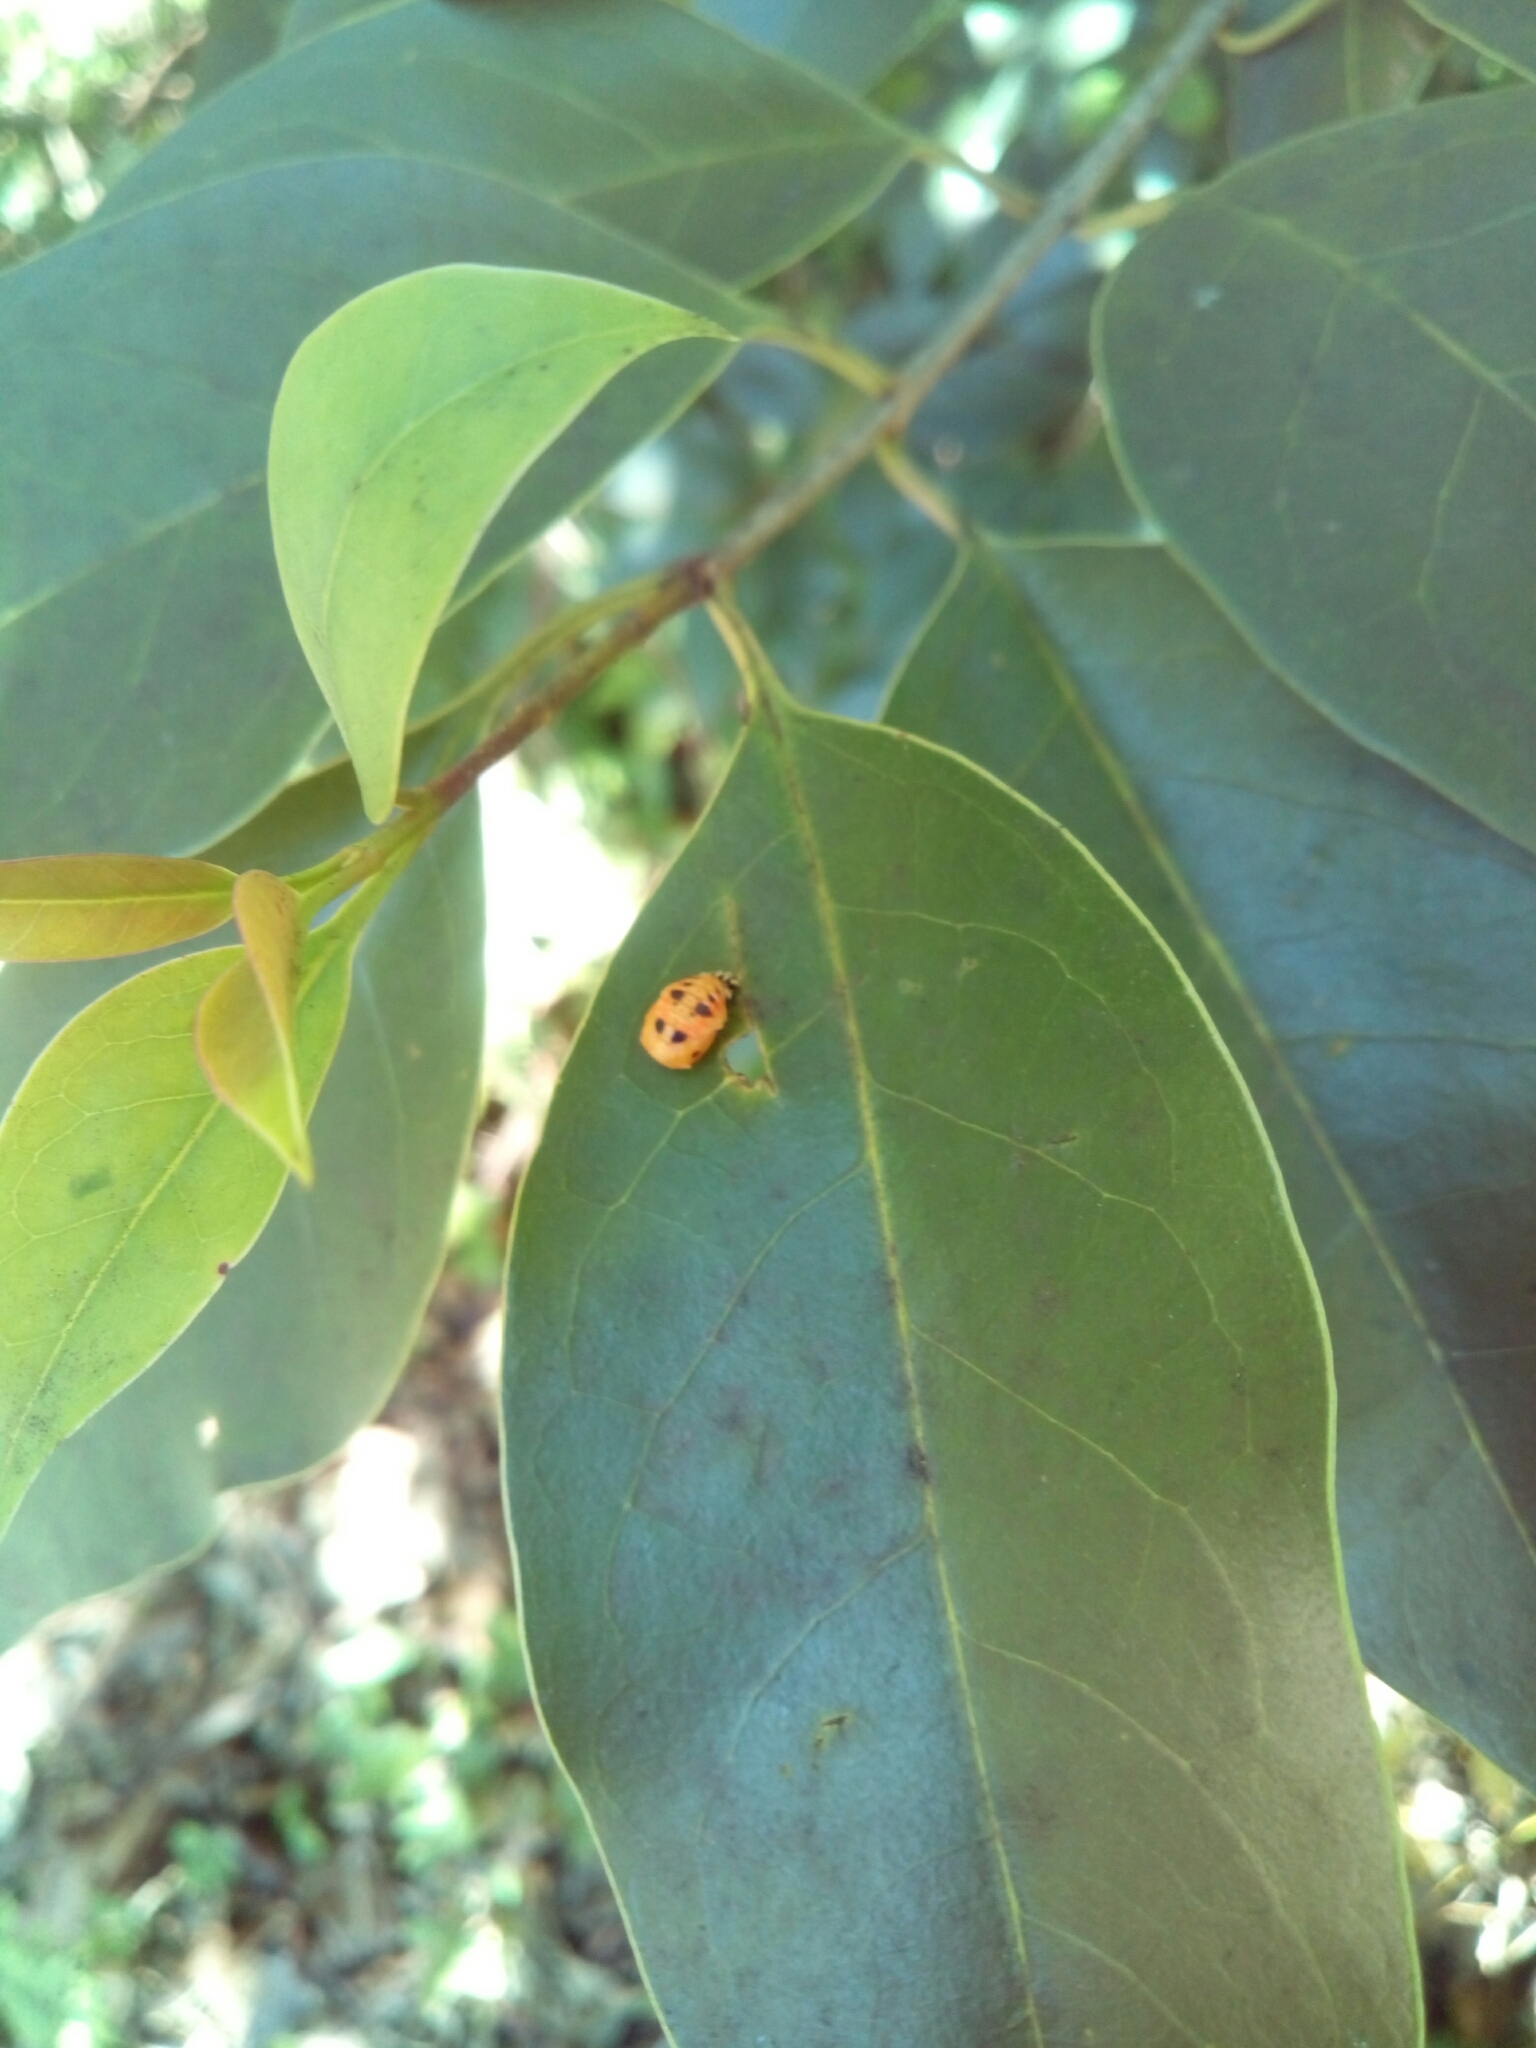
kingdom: Animalia
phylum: Arthropoda
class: Insecta
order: Coleoptera
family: Coccinellidae
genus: Harmonia
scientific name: Harmonia axyridis
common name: Harlequin ladybird
